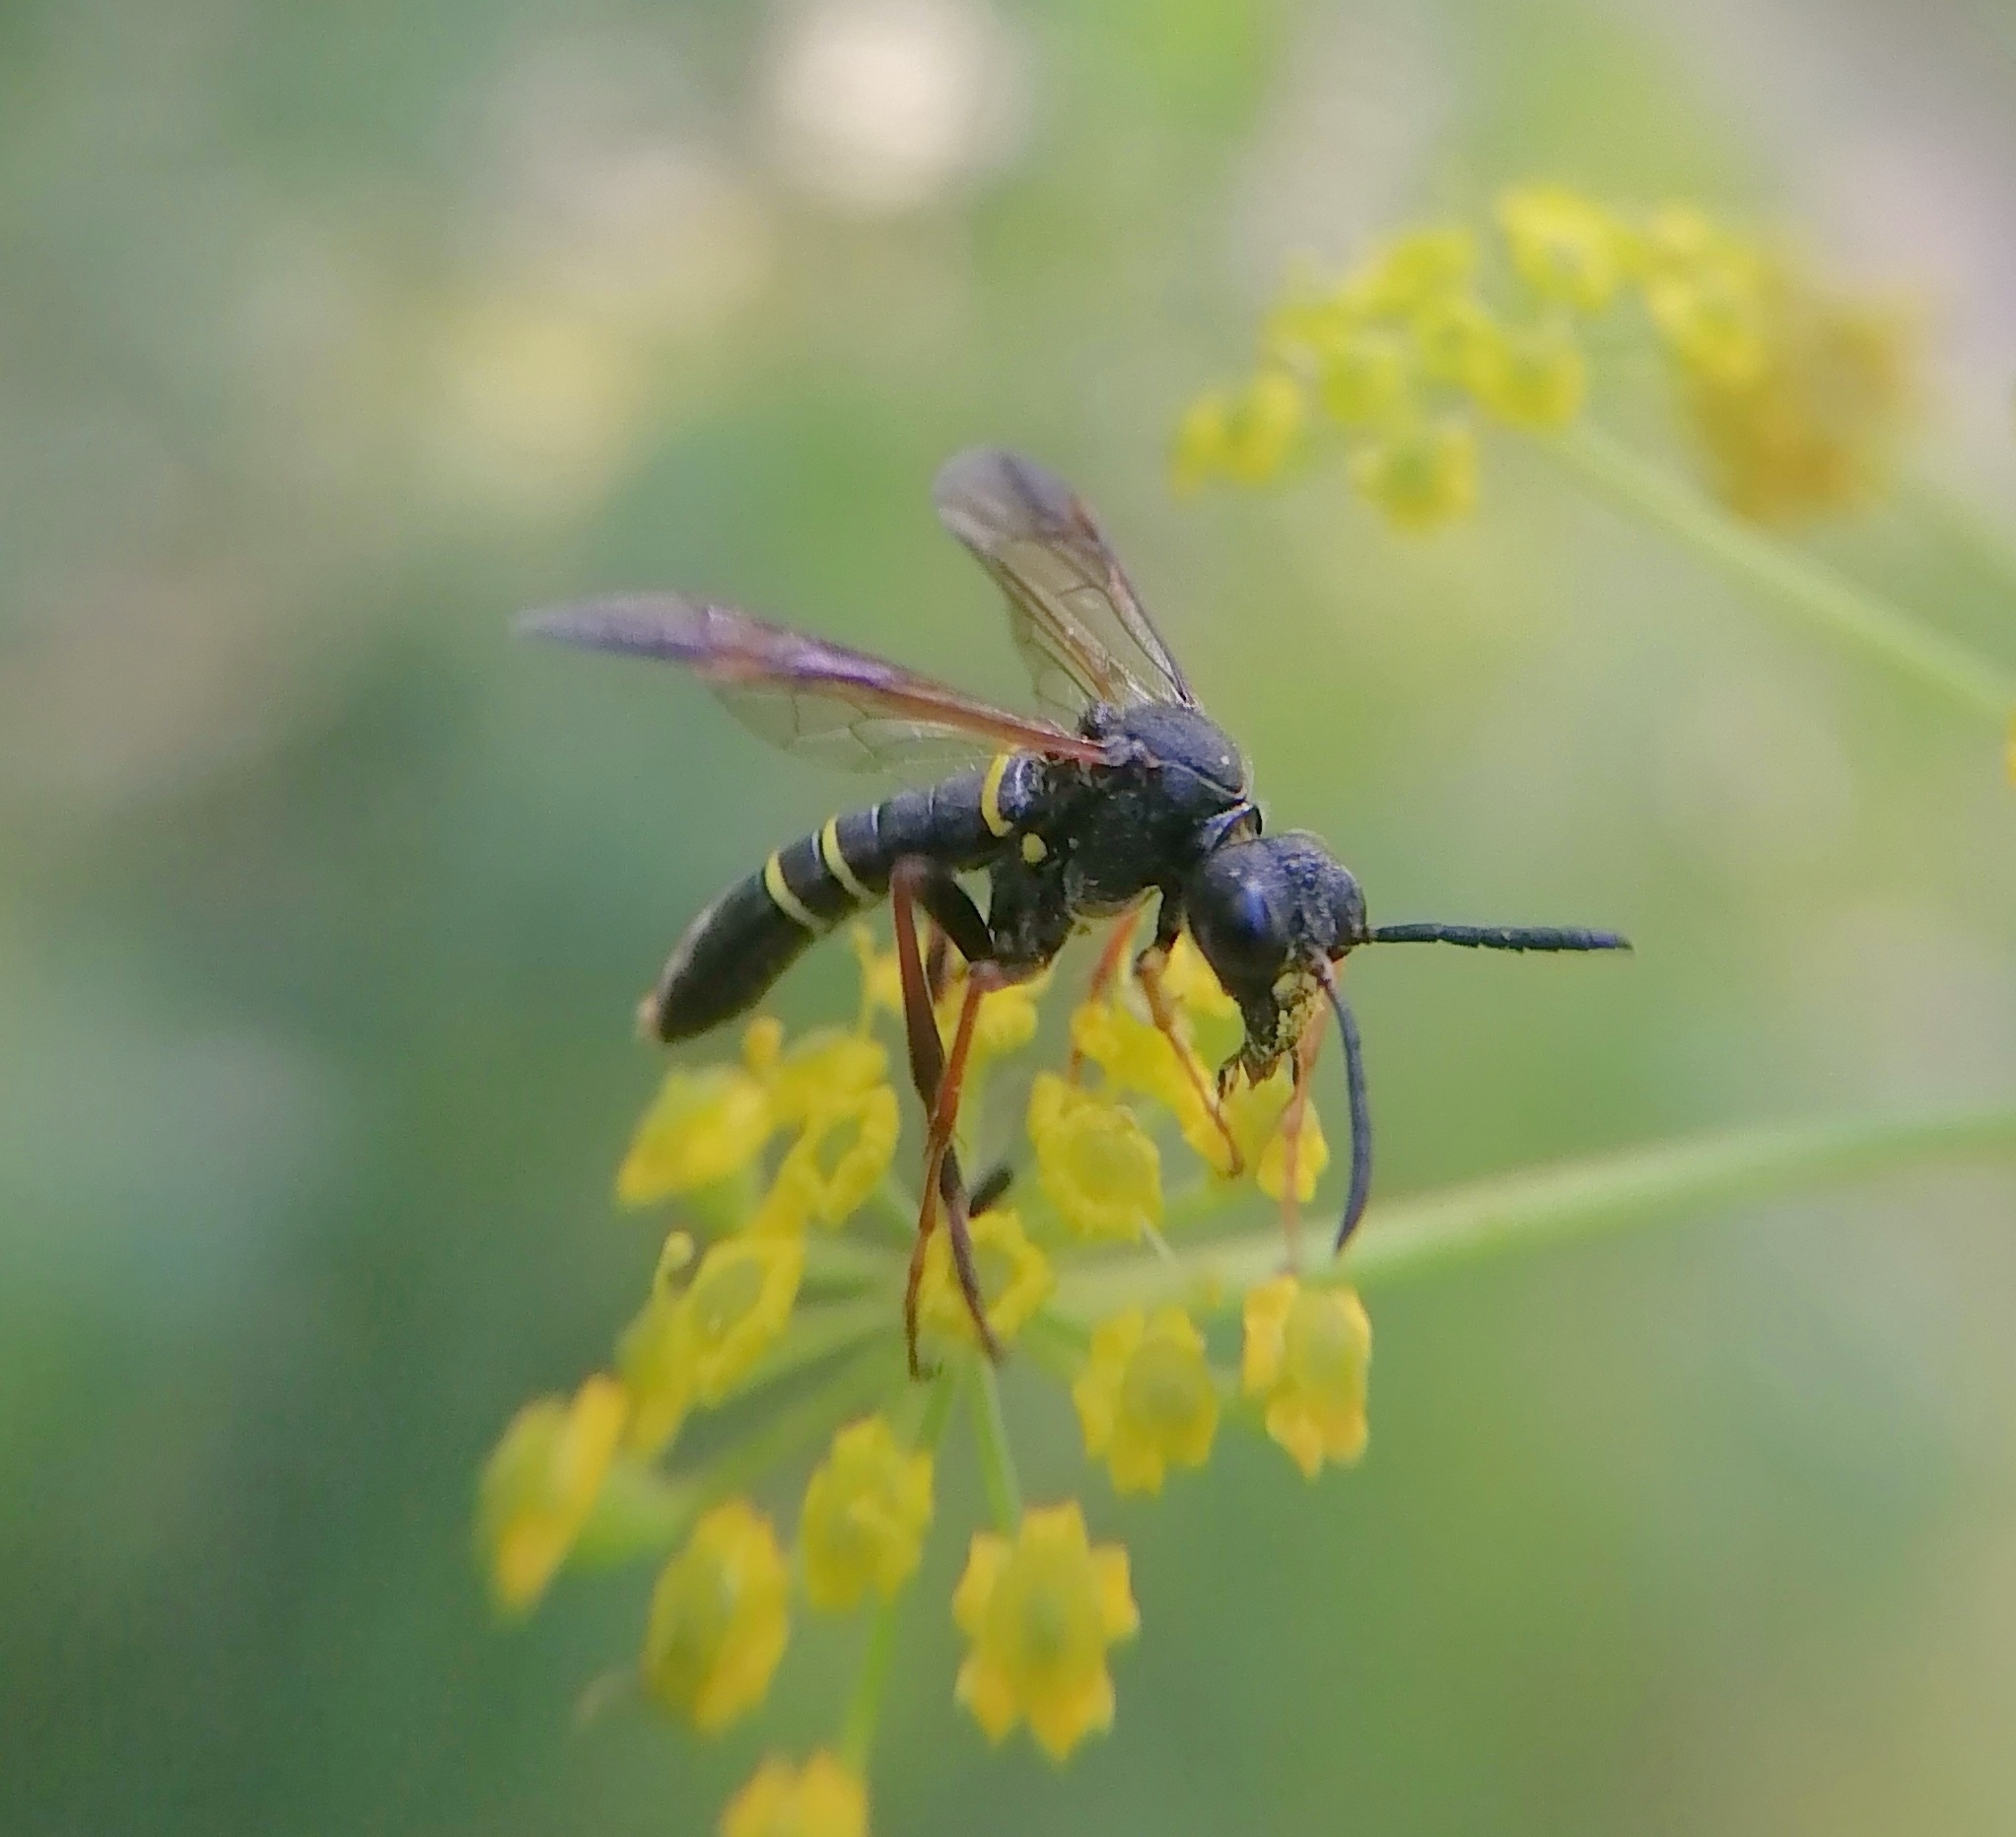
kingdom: Animalia
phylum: Arthropoda
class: Insecta
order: Hymenoptera
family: Tenthredinidae
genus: Tenthredo
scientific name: Tenthredo vespa
